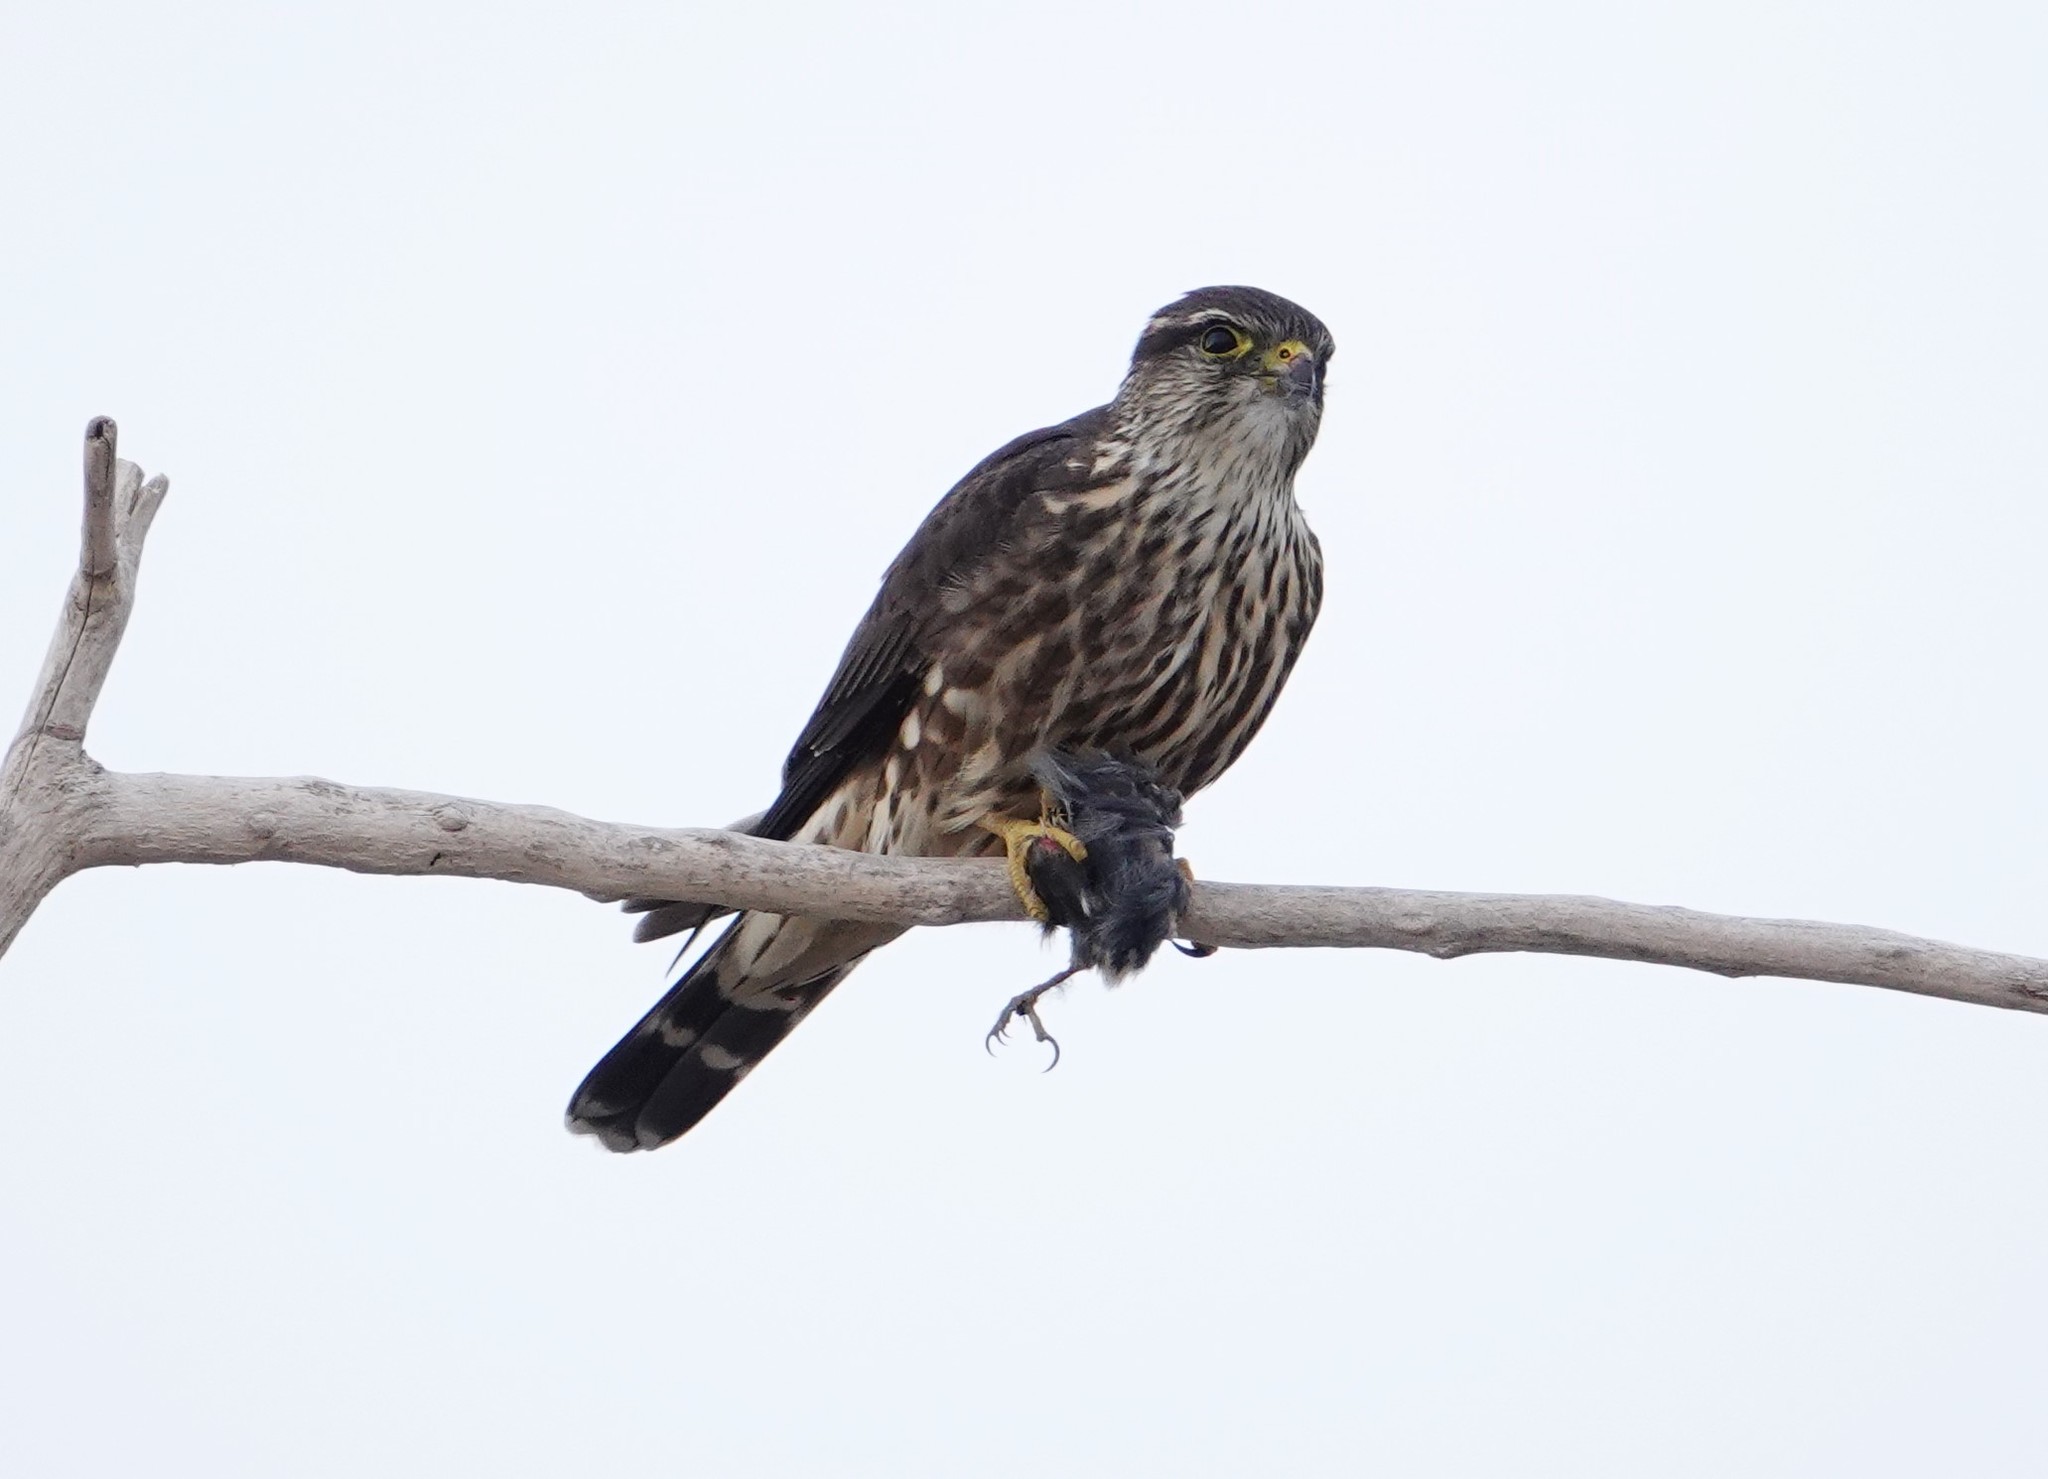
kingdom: Animalia
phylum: Chordata
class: Aves
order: Falconiformes
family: Falconidae
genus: Falco
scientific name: Falco columbarius
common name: Merlin
